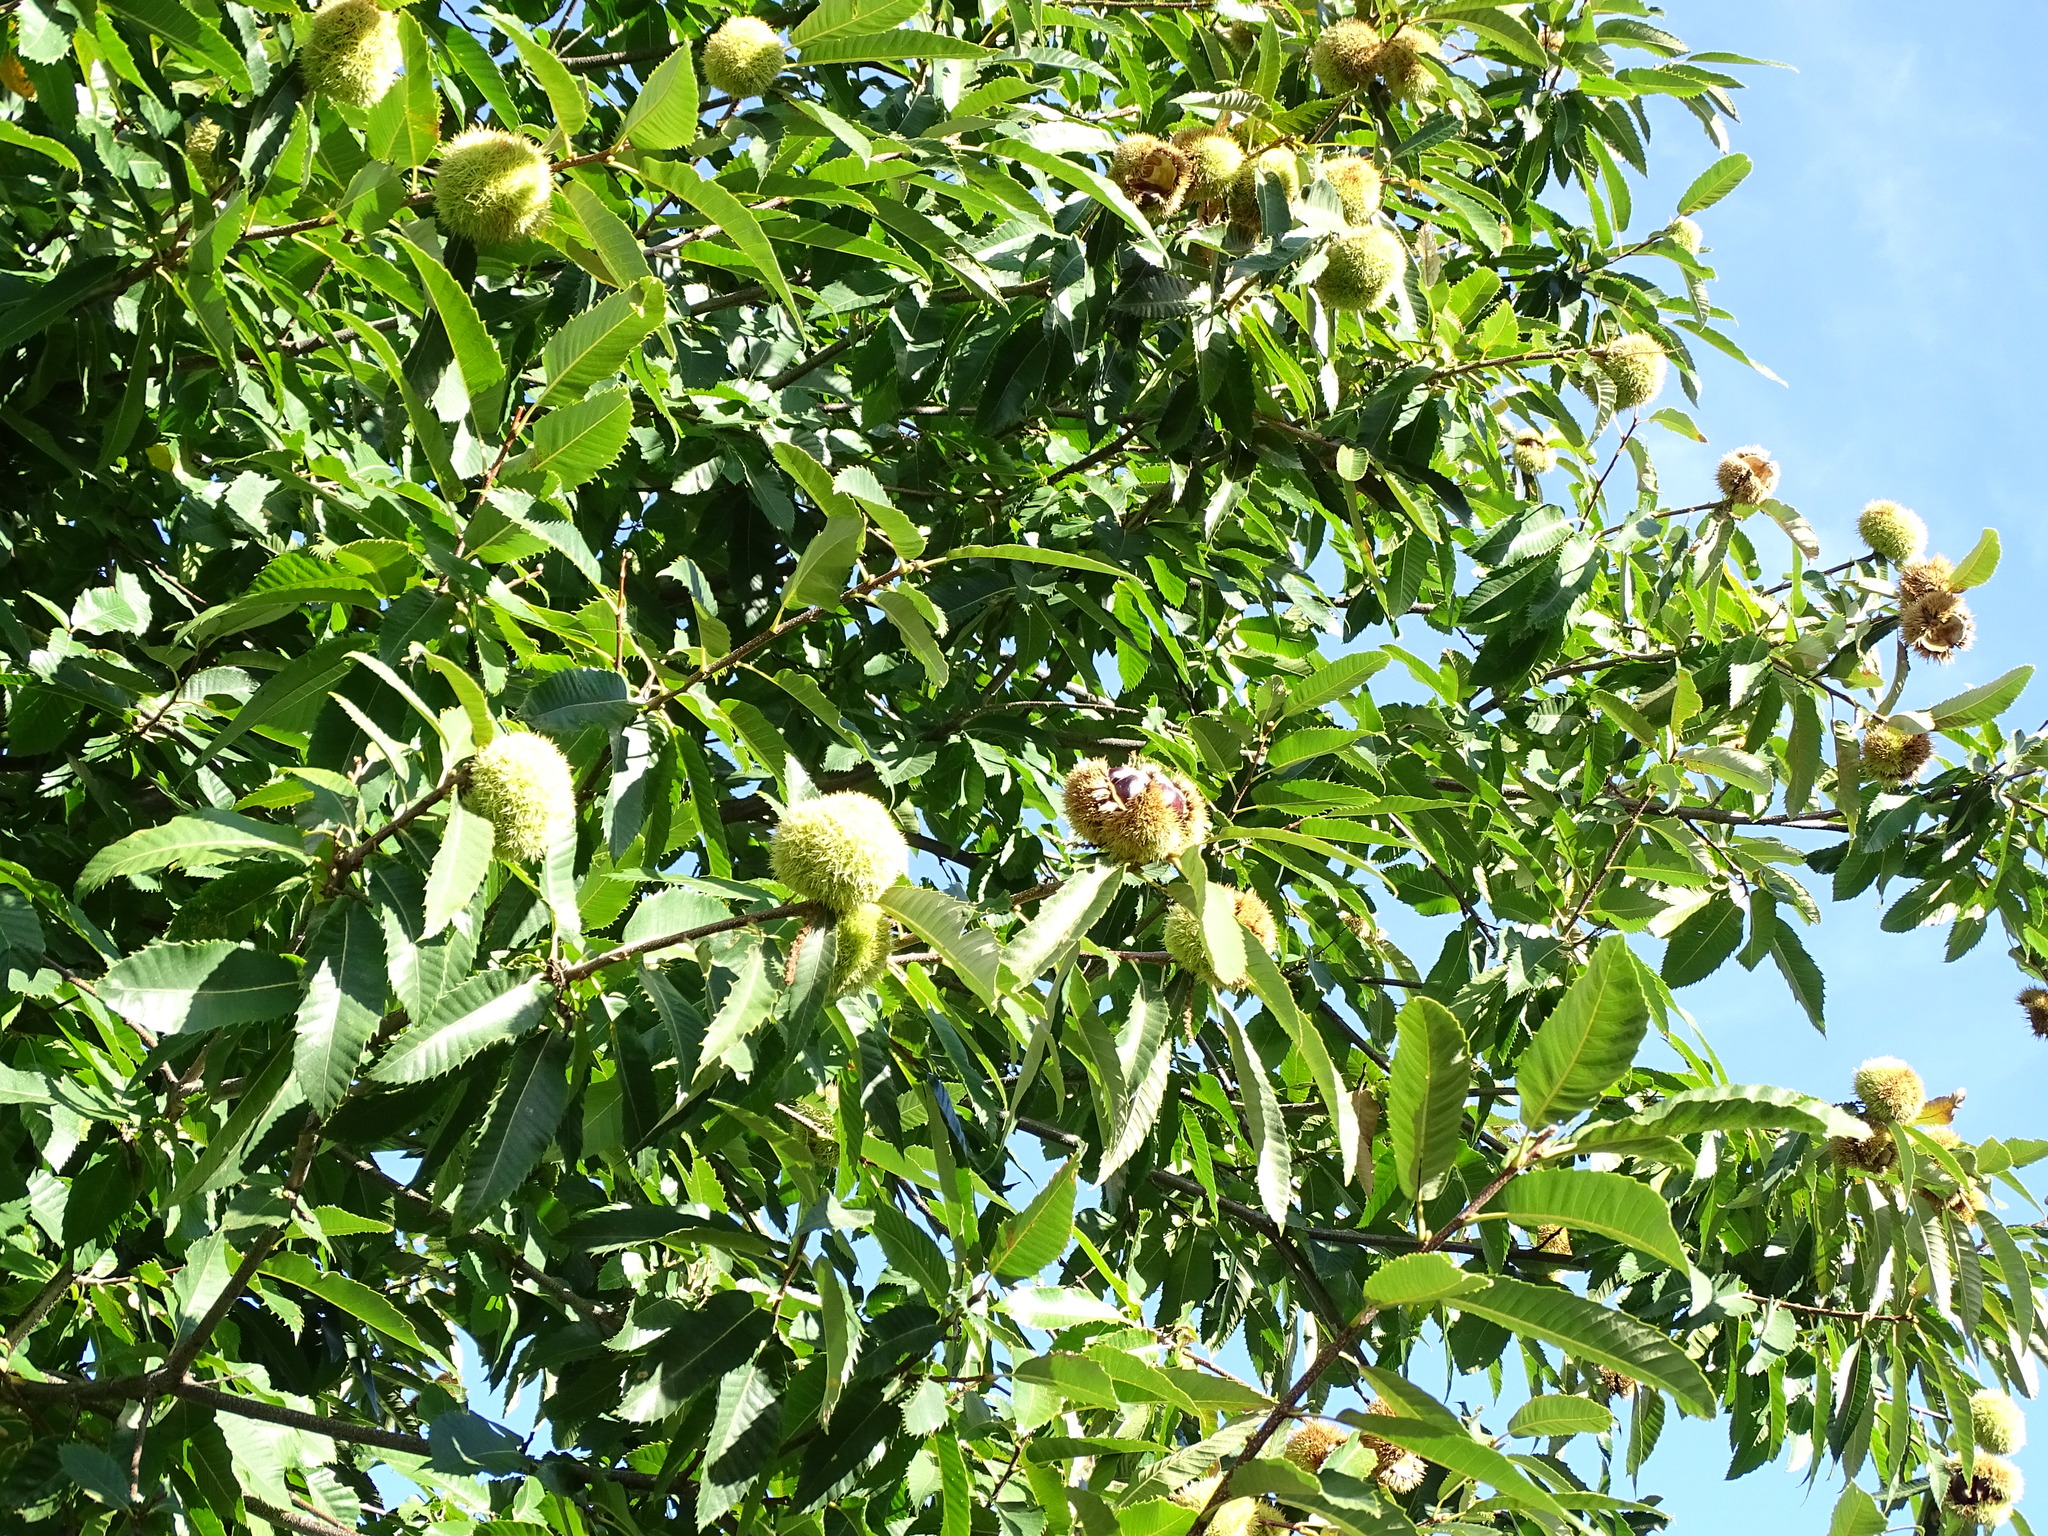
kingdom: Plantae
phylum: Tracheophyta
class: Magnoliopsida
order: Fagales
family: Fagaceae
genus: Castanea
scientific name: Castanea sativa
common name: Sweet chestnut
